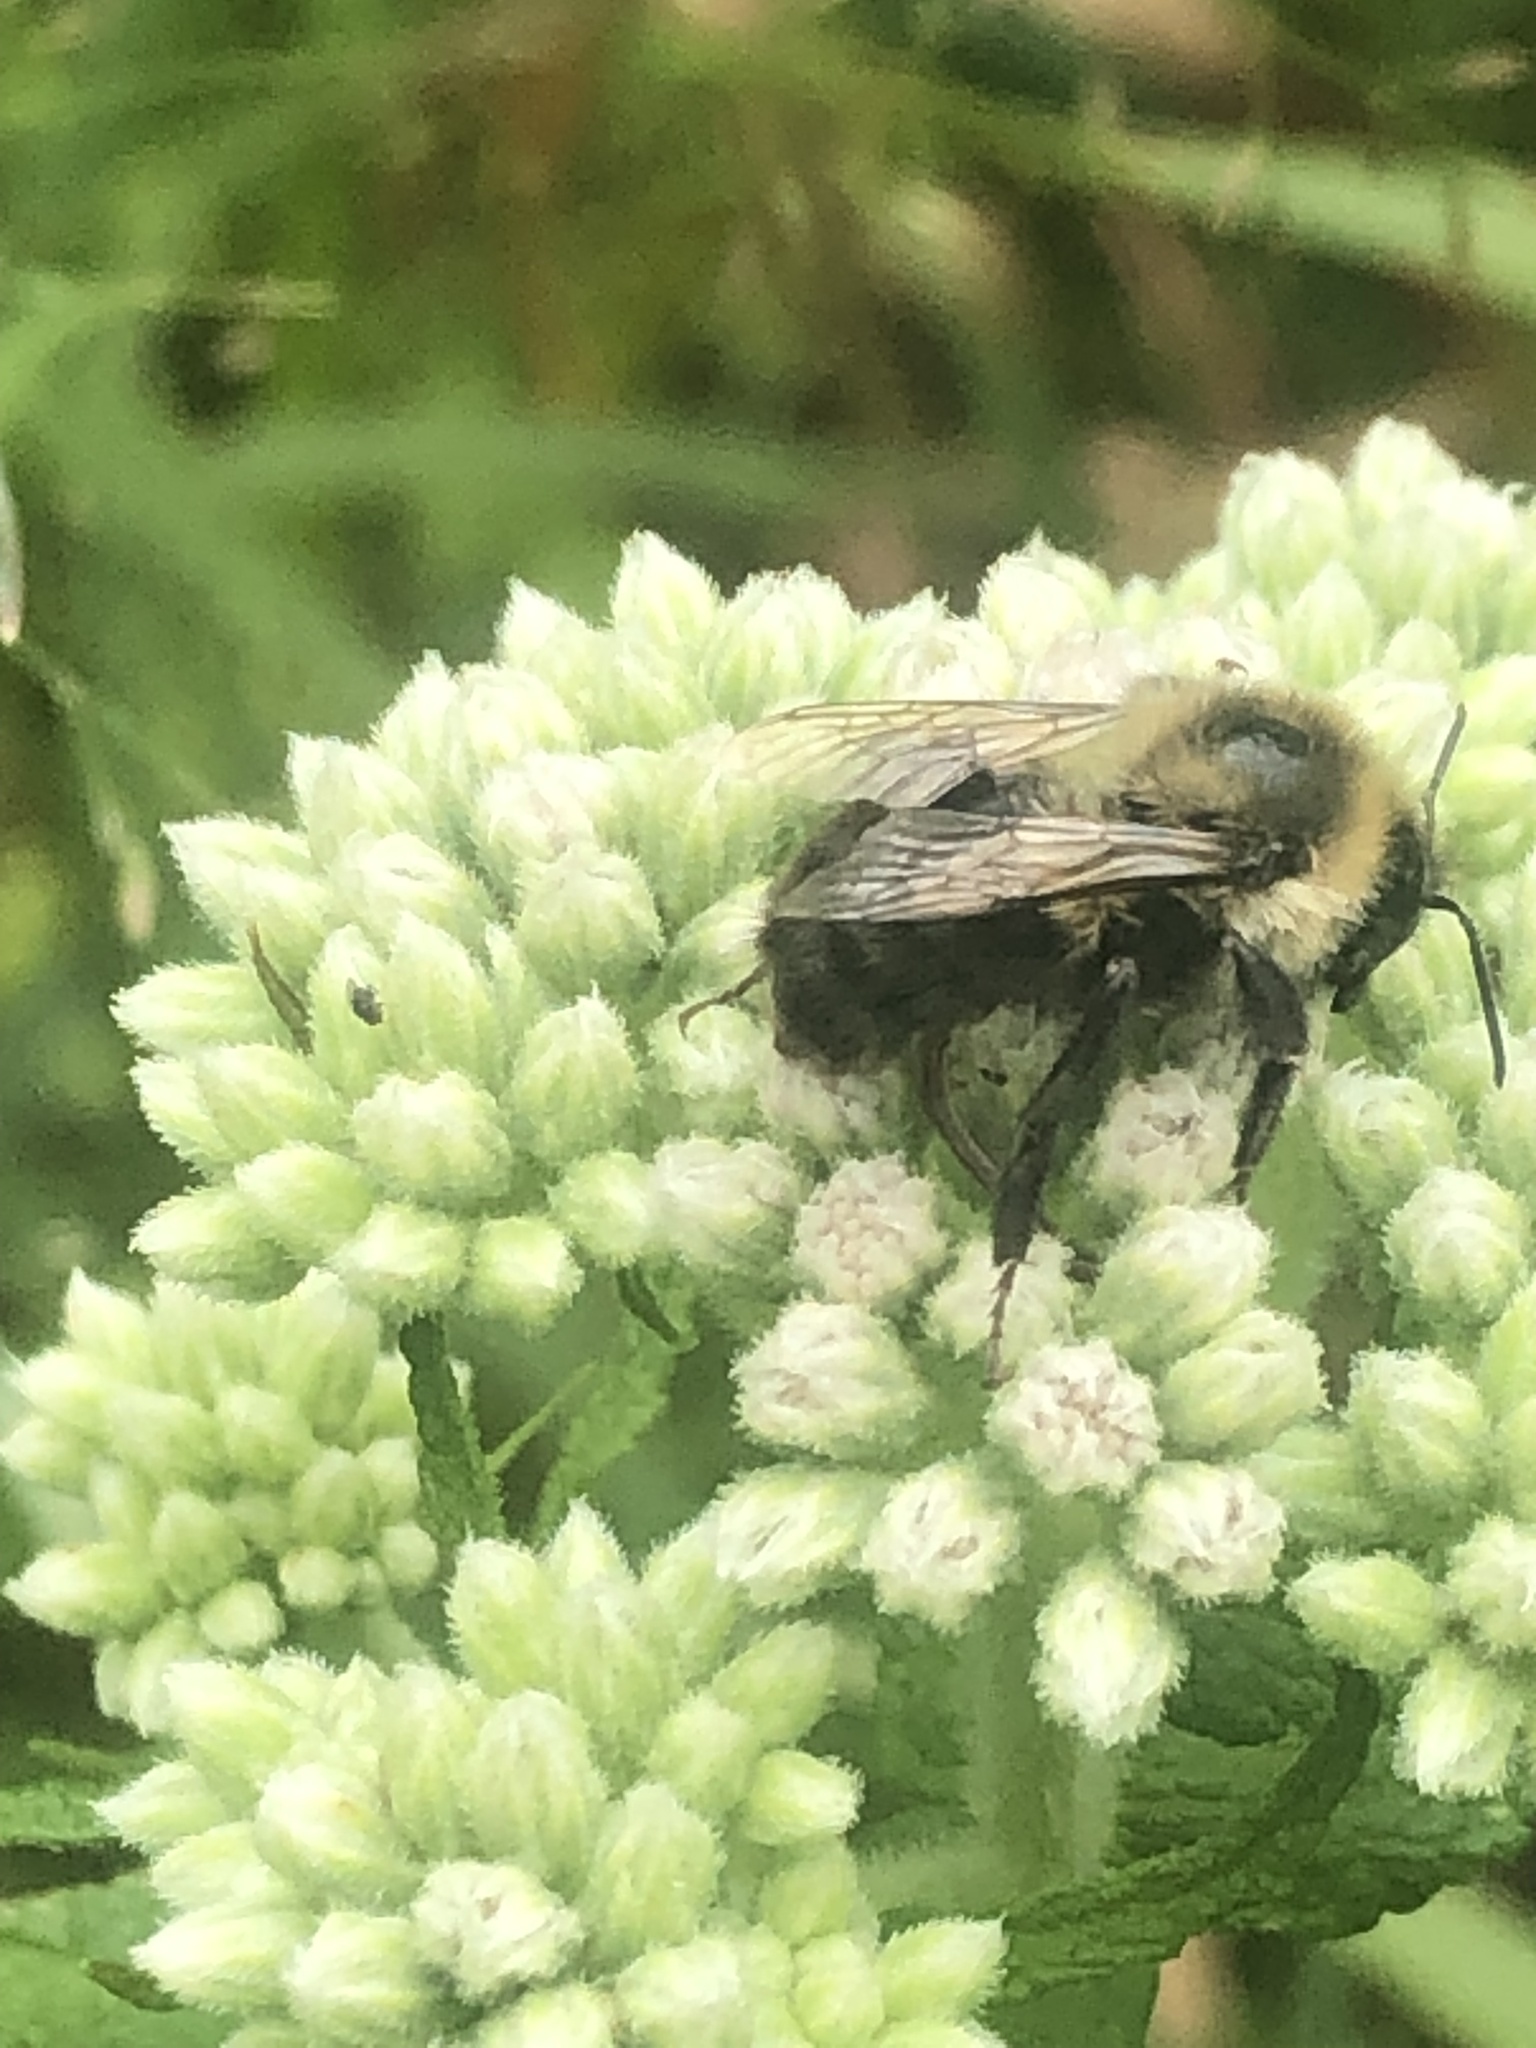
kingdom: Animalia
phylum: Arthropoda
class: Insecta
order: Hymenoptera
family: Apidae
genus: Bombus
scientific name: Bombus impatiens
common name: Common eastern bumble bee
